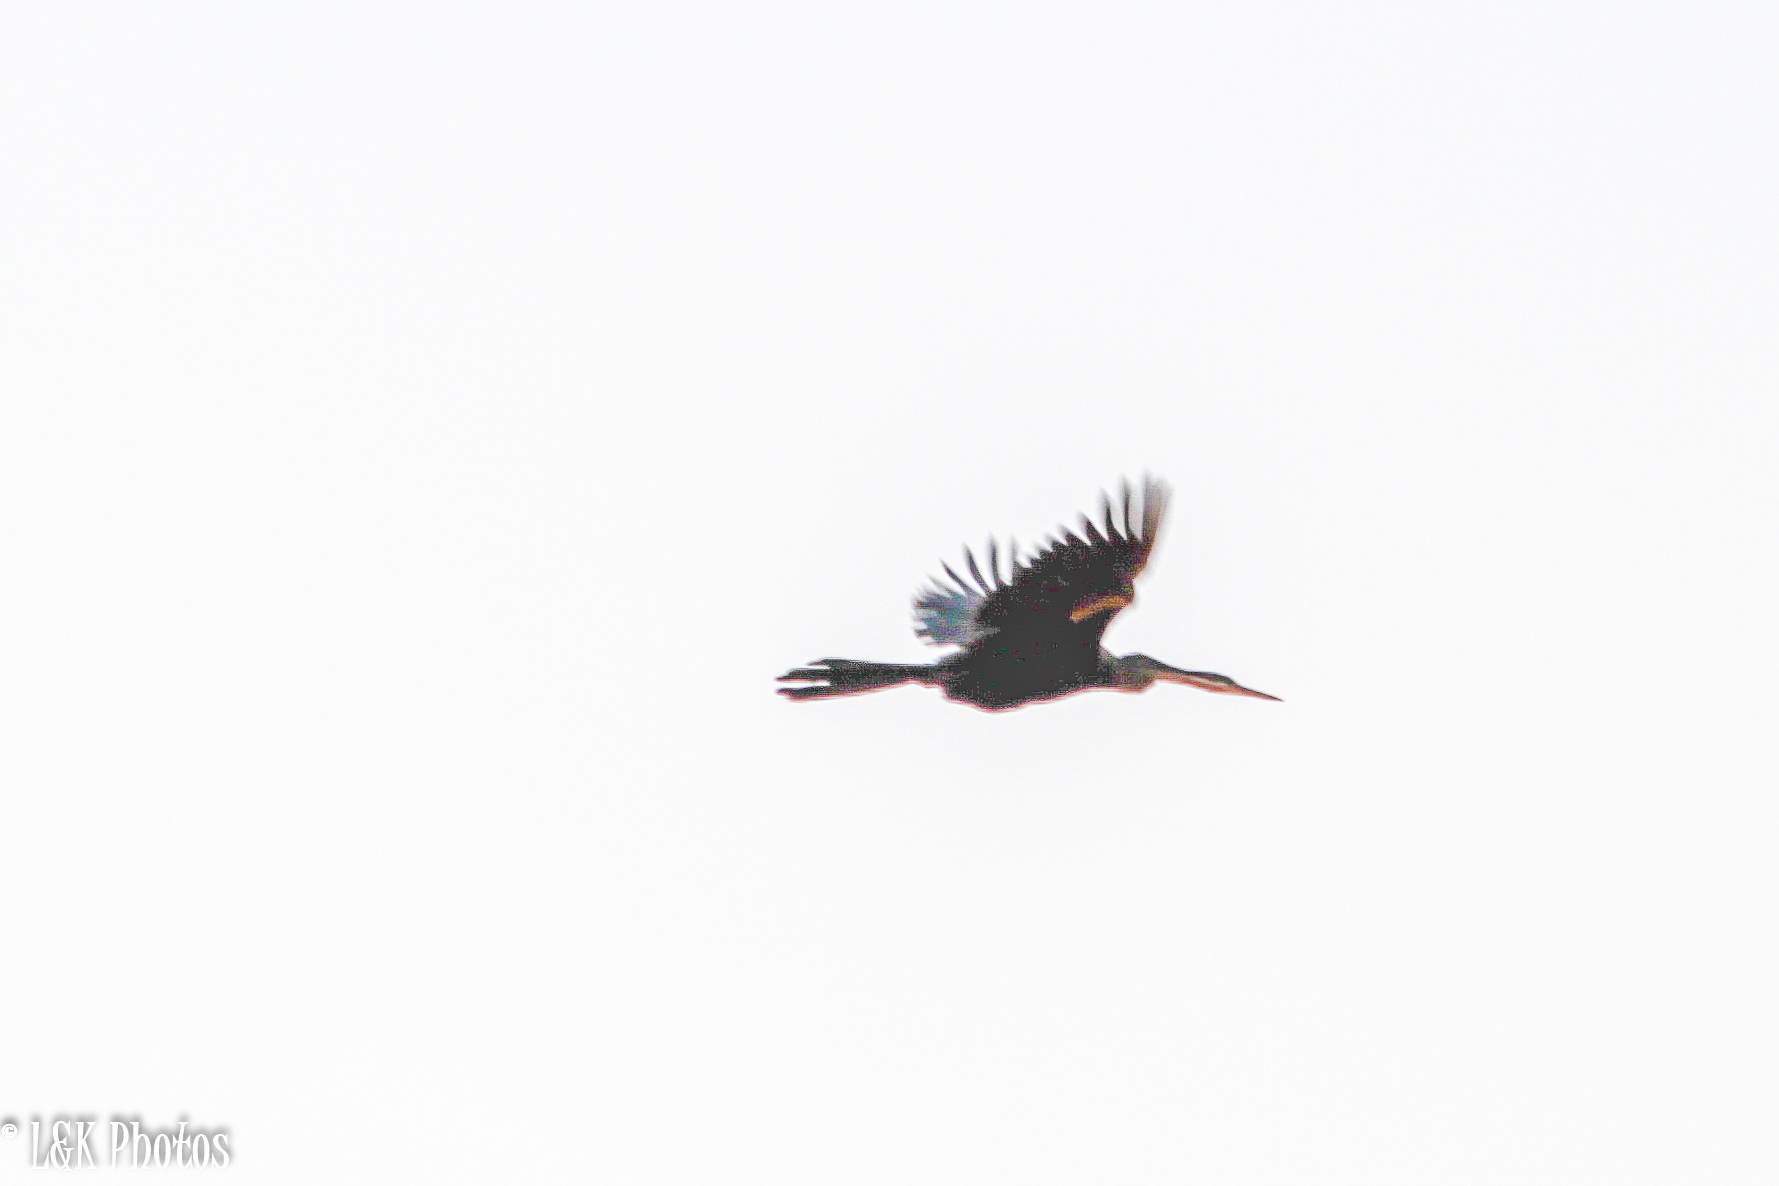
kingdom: Animalia
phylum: Chordata
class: Aves
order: Suliformes
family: Anhingidae
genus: Anhinga
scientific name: Anhinga rufa
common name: African darter
